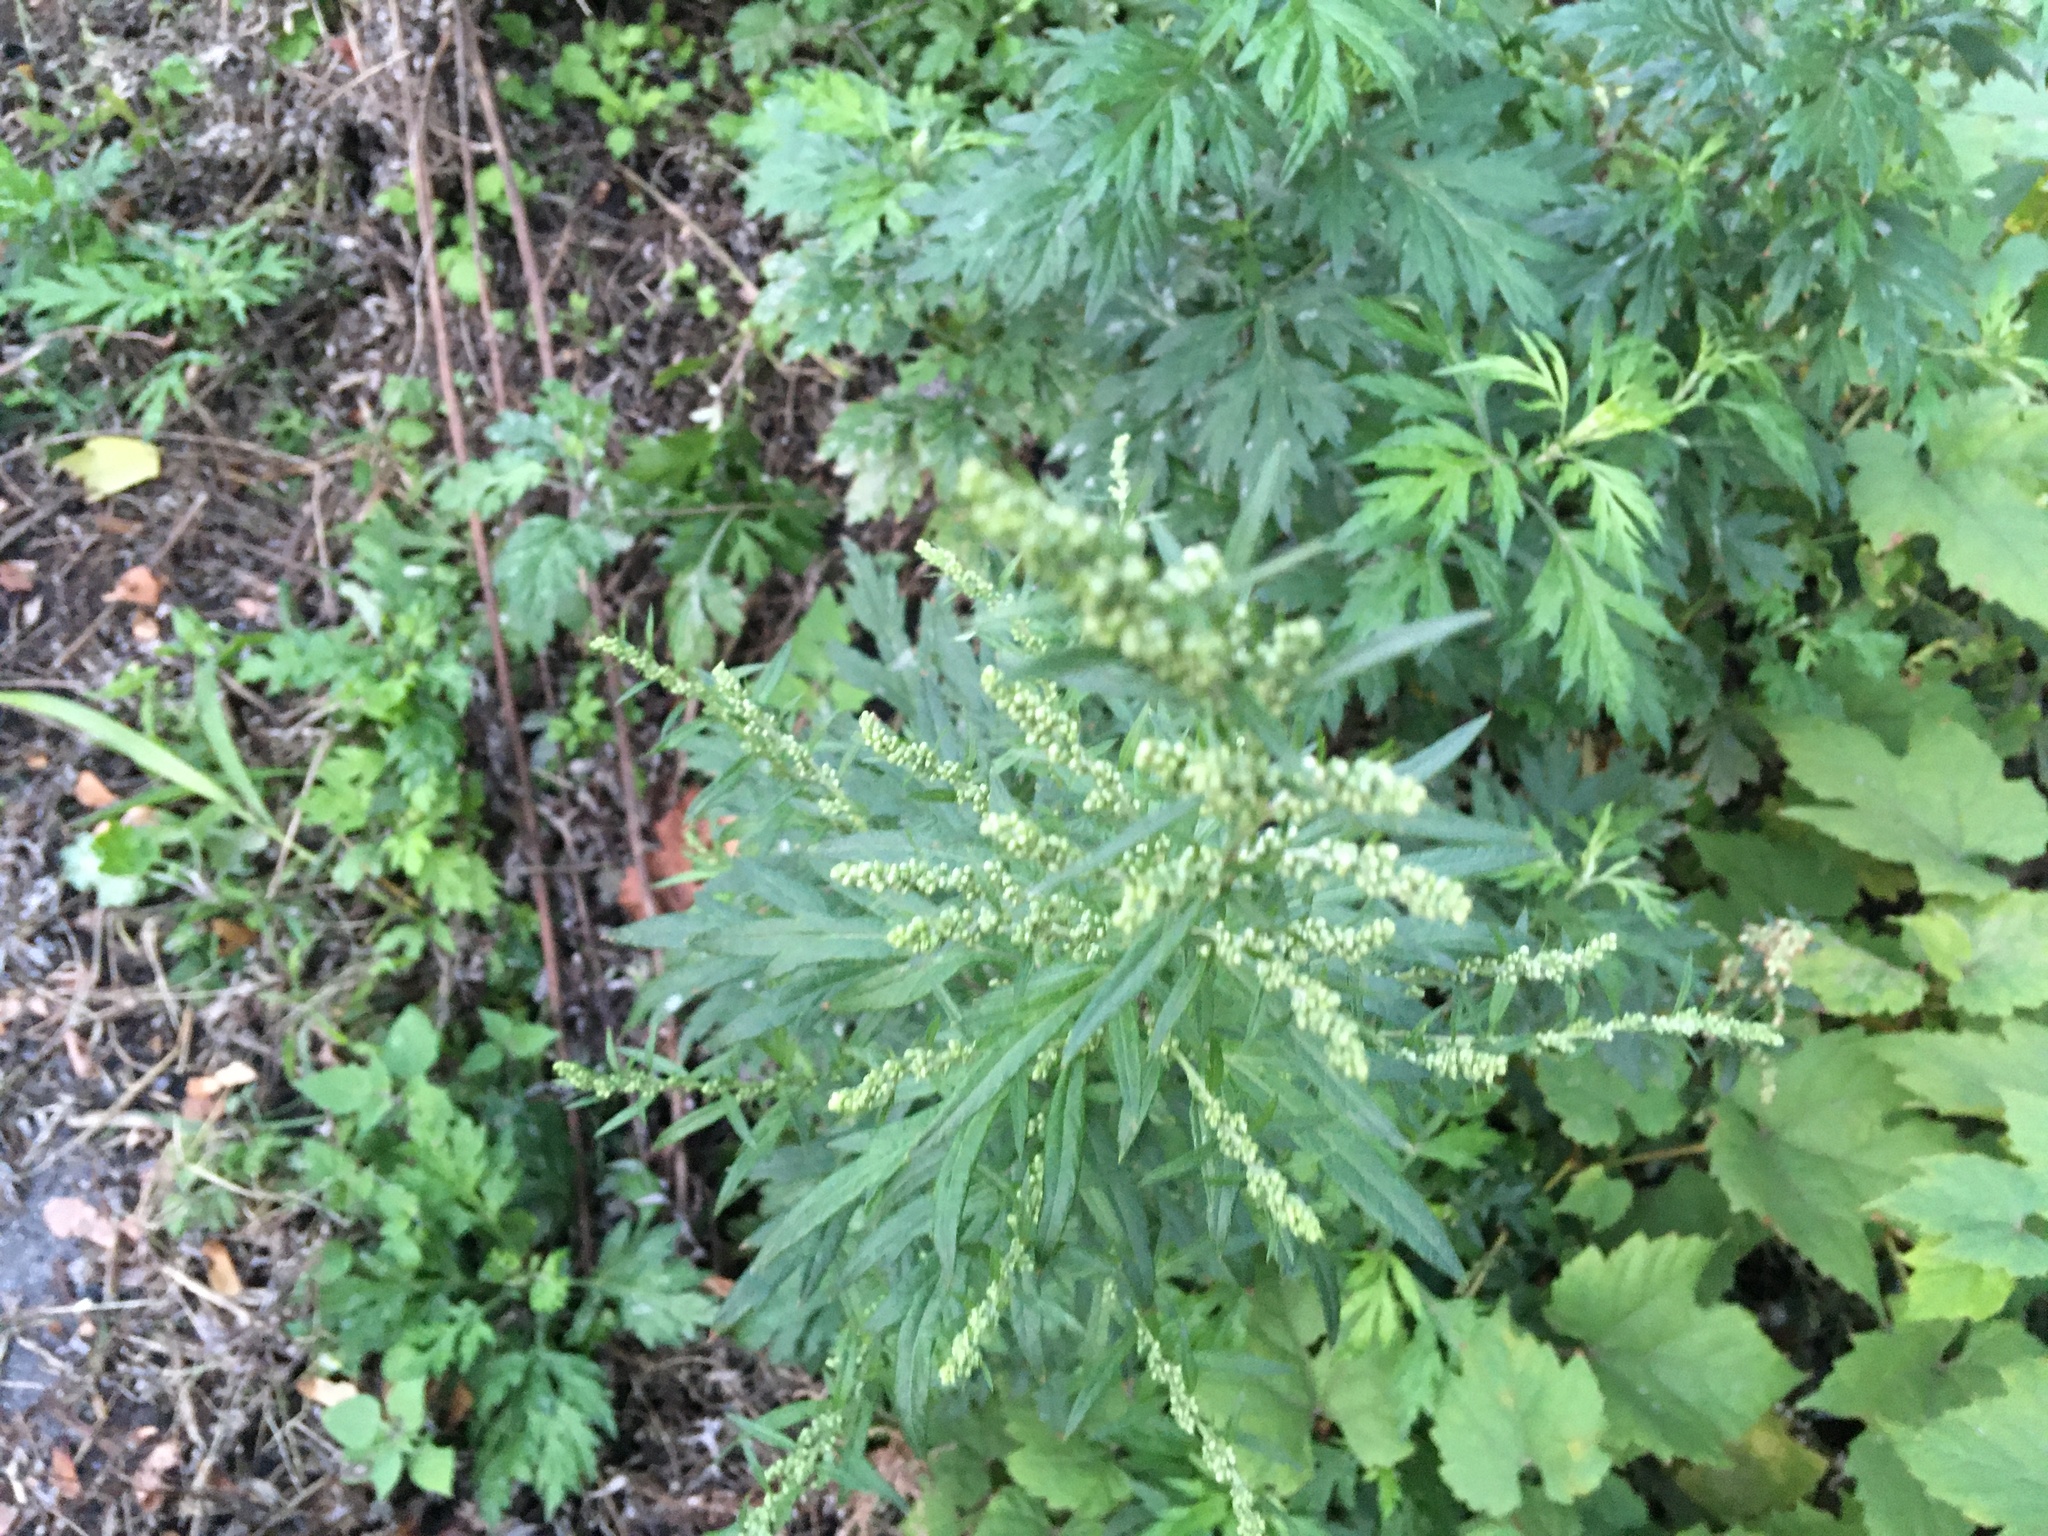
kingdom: Plantae
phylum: Tracheophyta
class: Magnoliopsida
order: Asterales
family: Asteraceae
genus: Artemisia
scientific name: Artemisia vulgaris
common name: Mugwort
